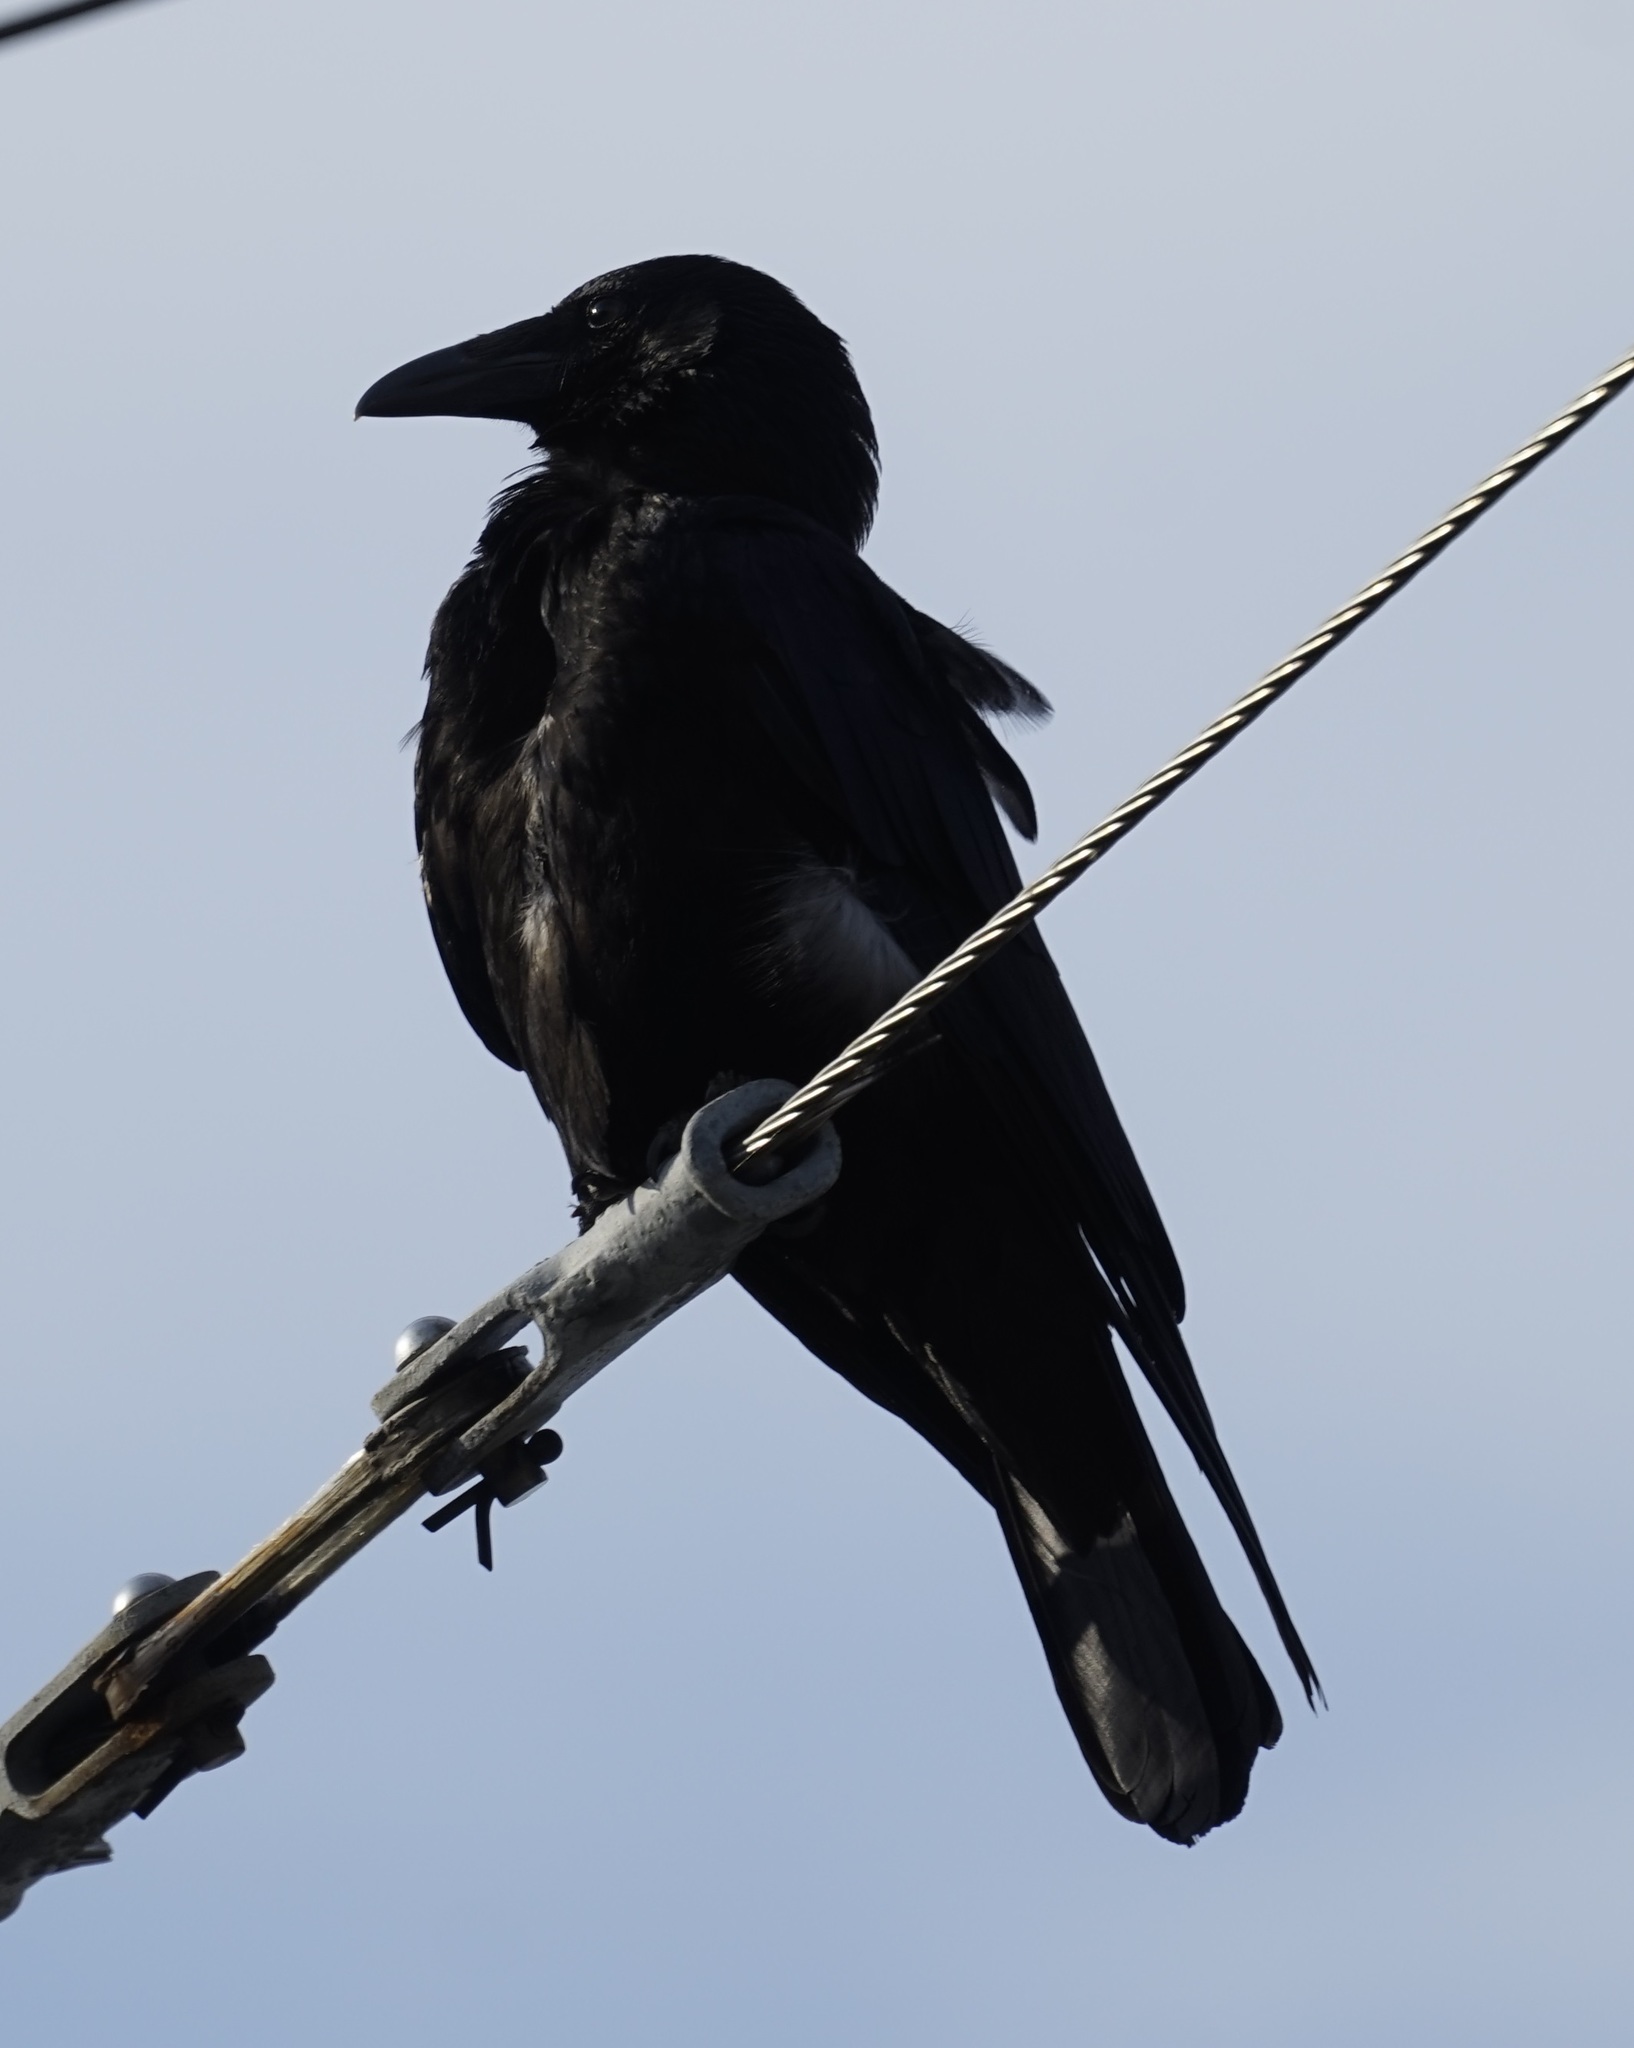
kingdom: Animalia
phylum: Chordata
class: Aves
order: Passeriformes
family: Corvidae
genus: Corvus
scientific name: Corvus corone
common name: Carrion crow
